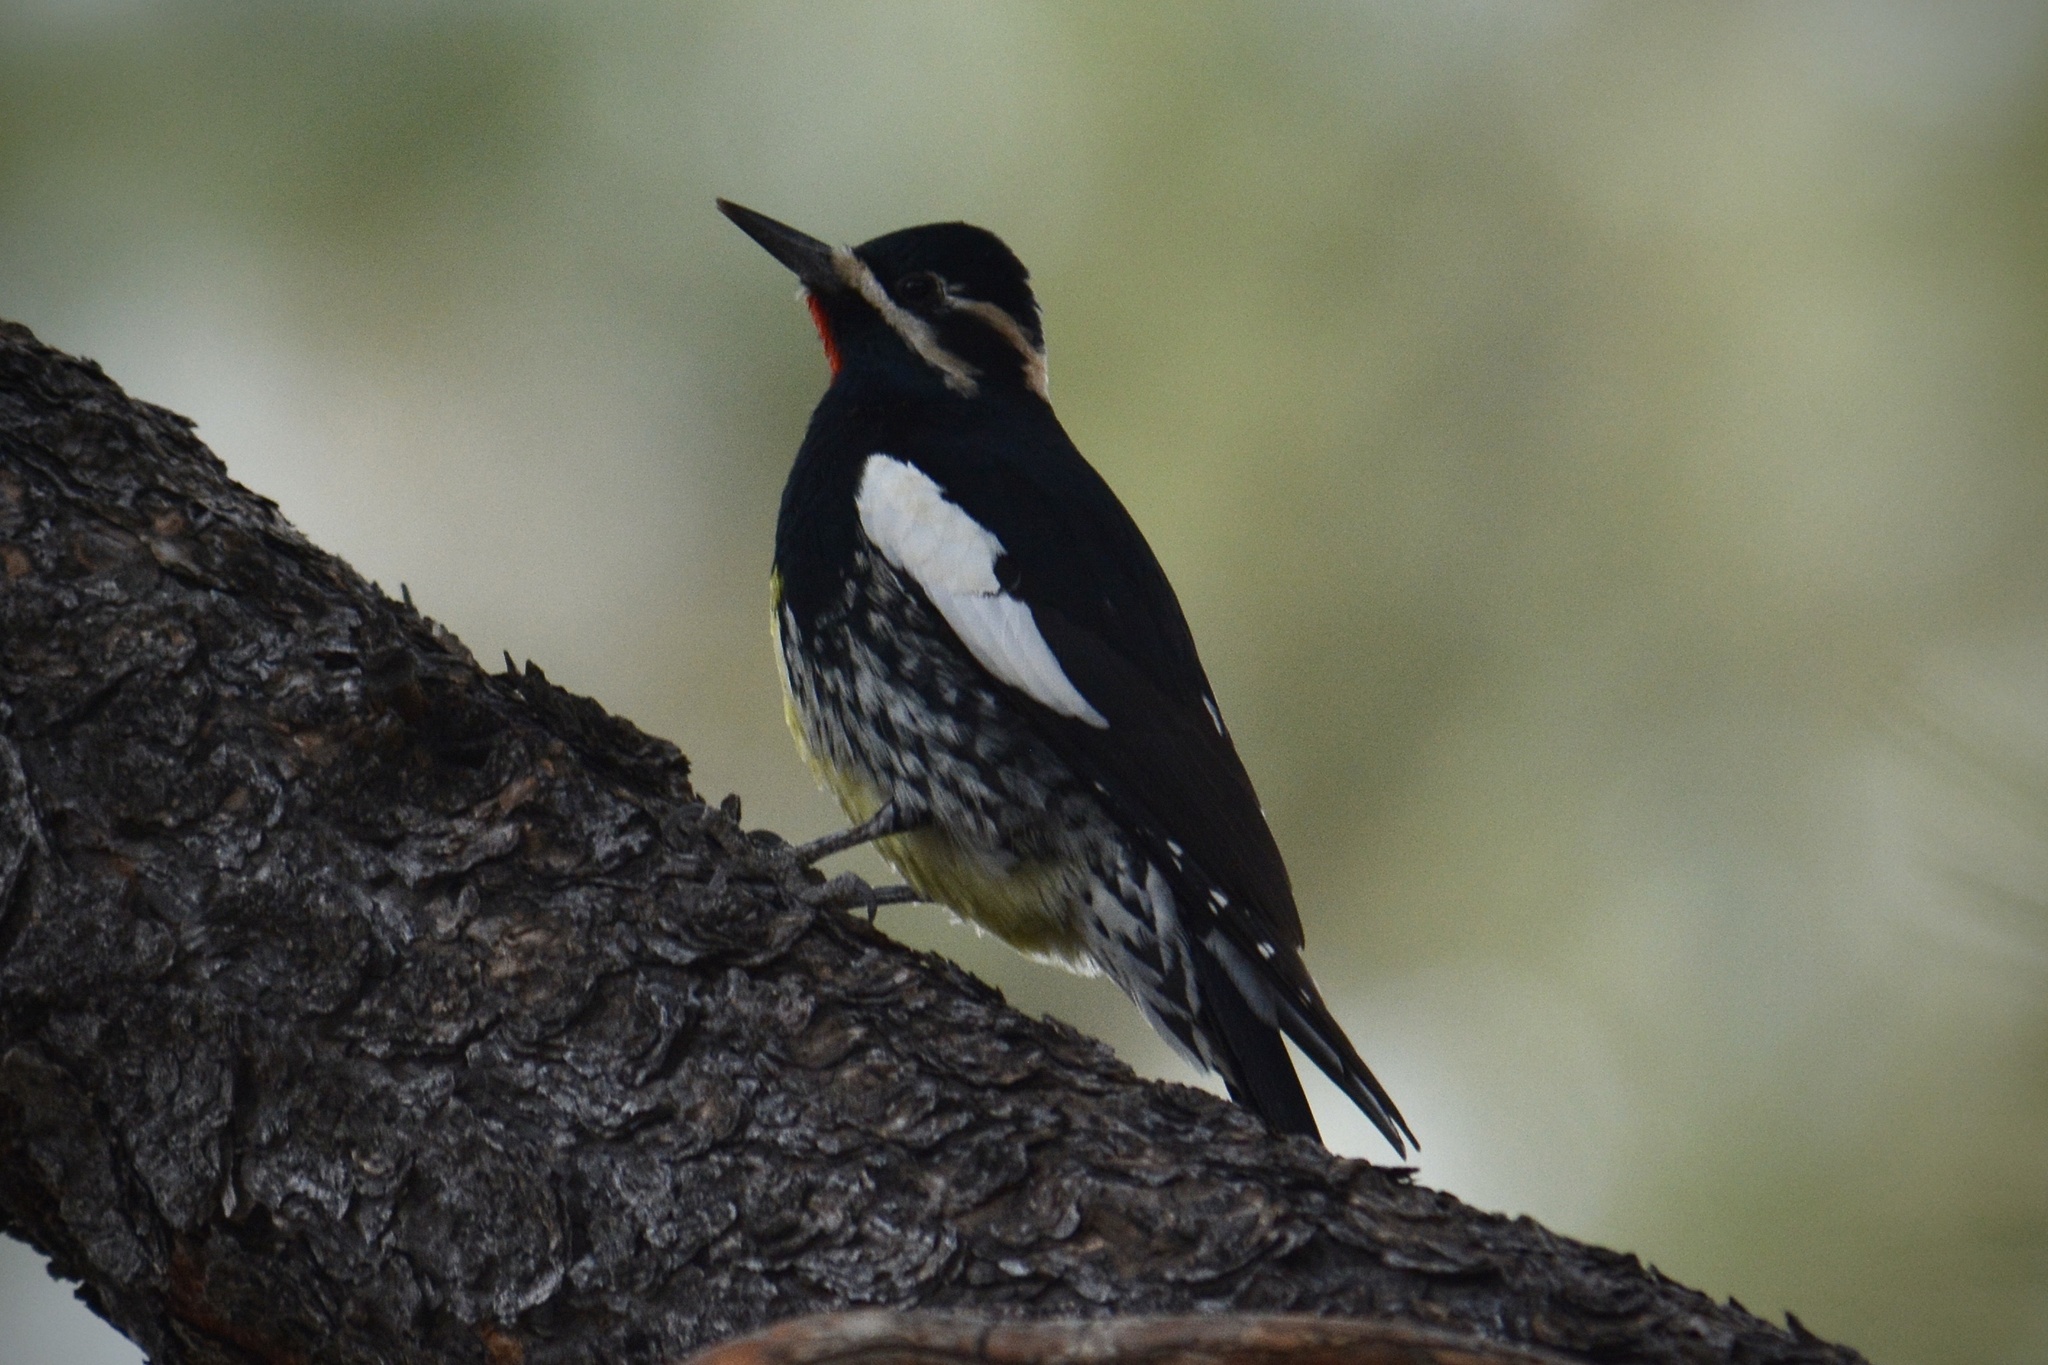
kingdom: Animalia
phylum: Chordata
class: Aves
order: Piciformes
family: Picidae
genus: Sphyrapicus
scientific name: Sphyrapicus thyroideus
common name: Williamson's sapsucker
